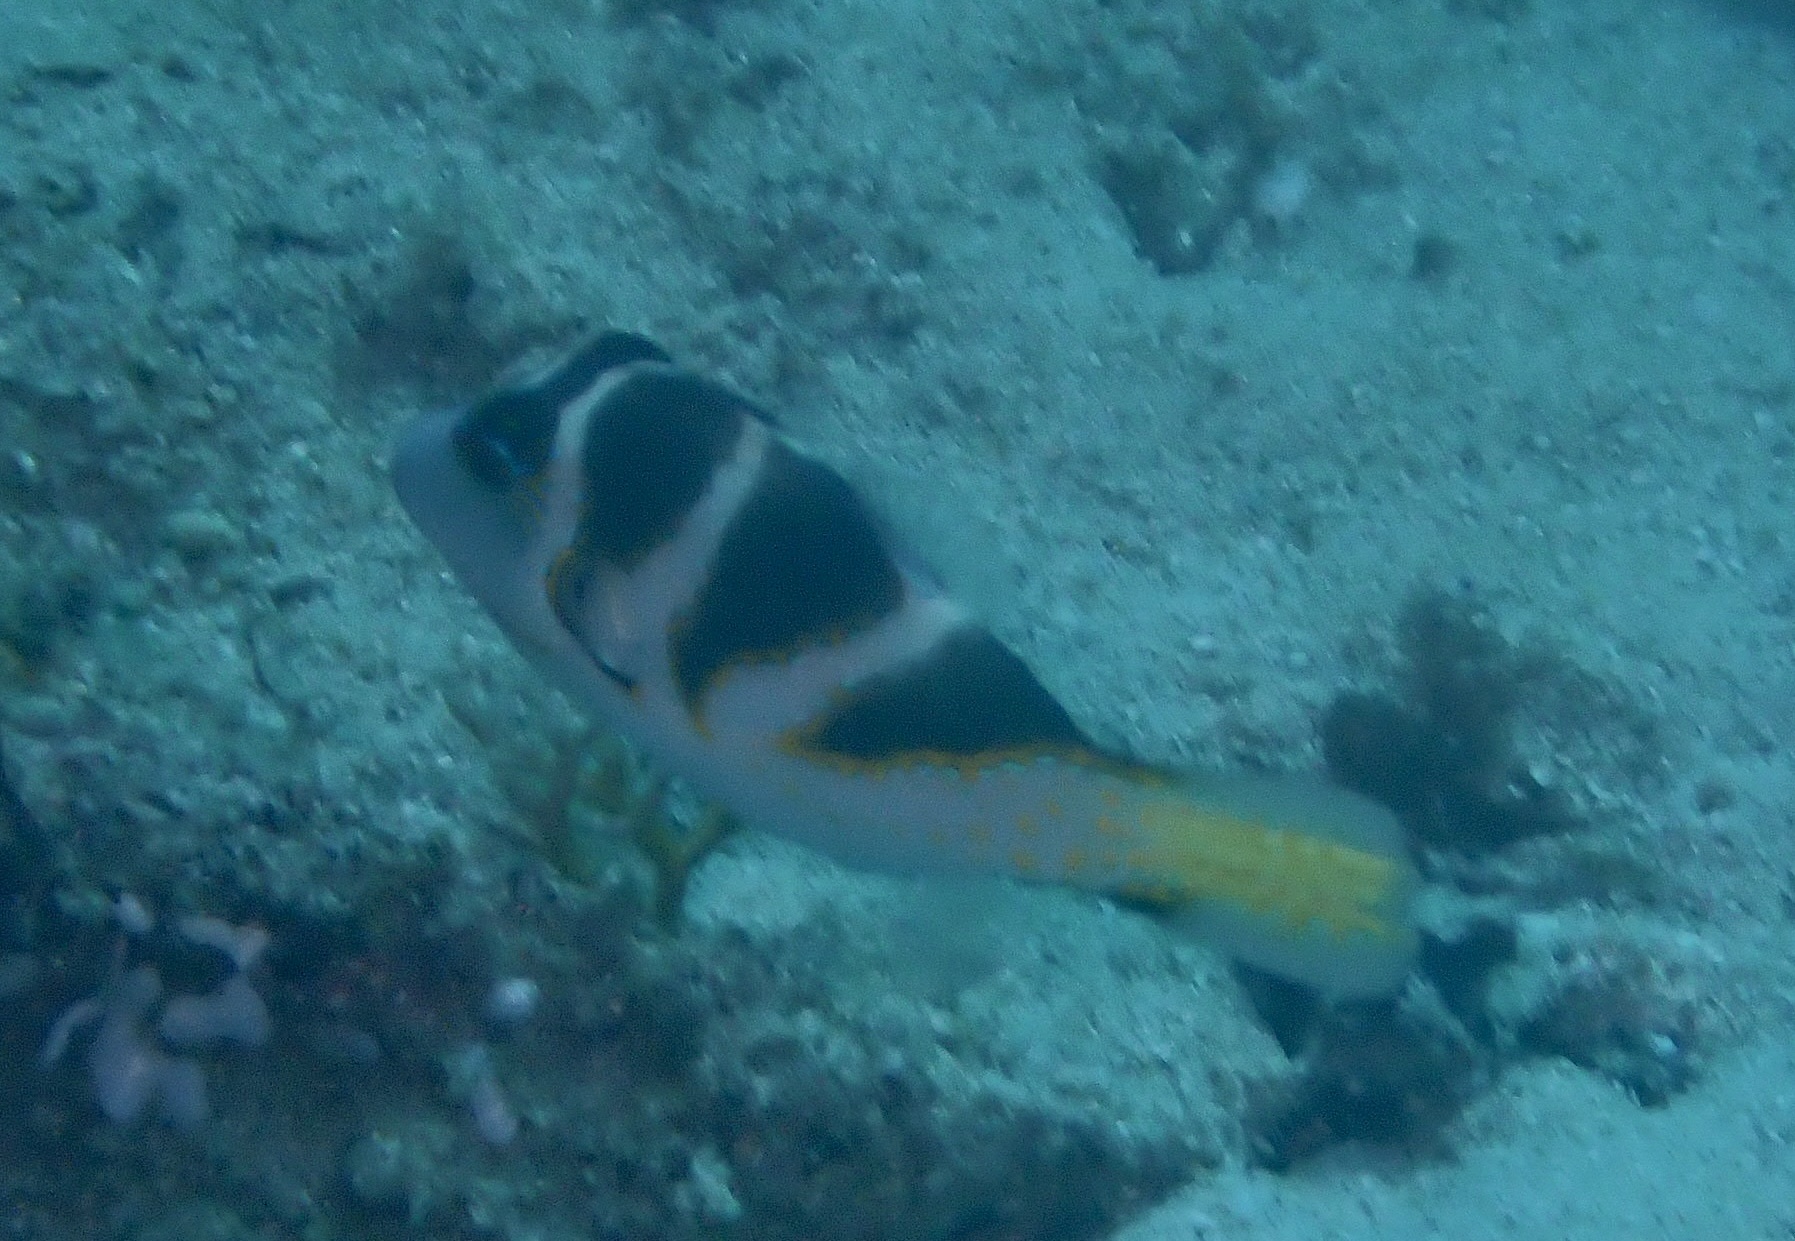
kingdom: Animalia
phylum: Chordata
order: Tetraodontiformes
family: Tetraodontidae
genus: Canthigaster
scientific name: Canthigaster axiologus
